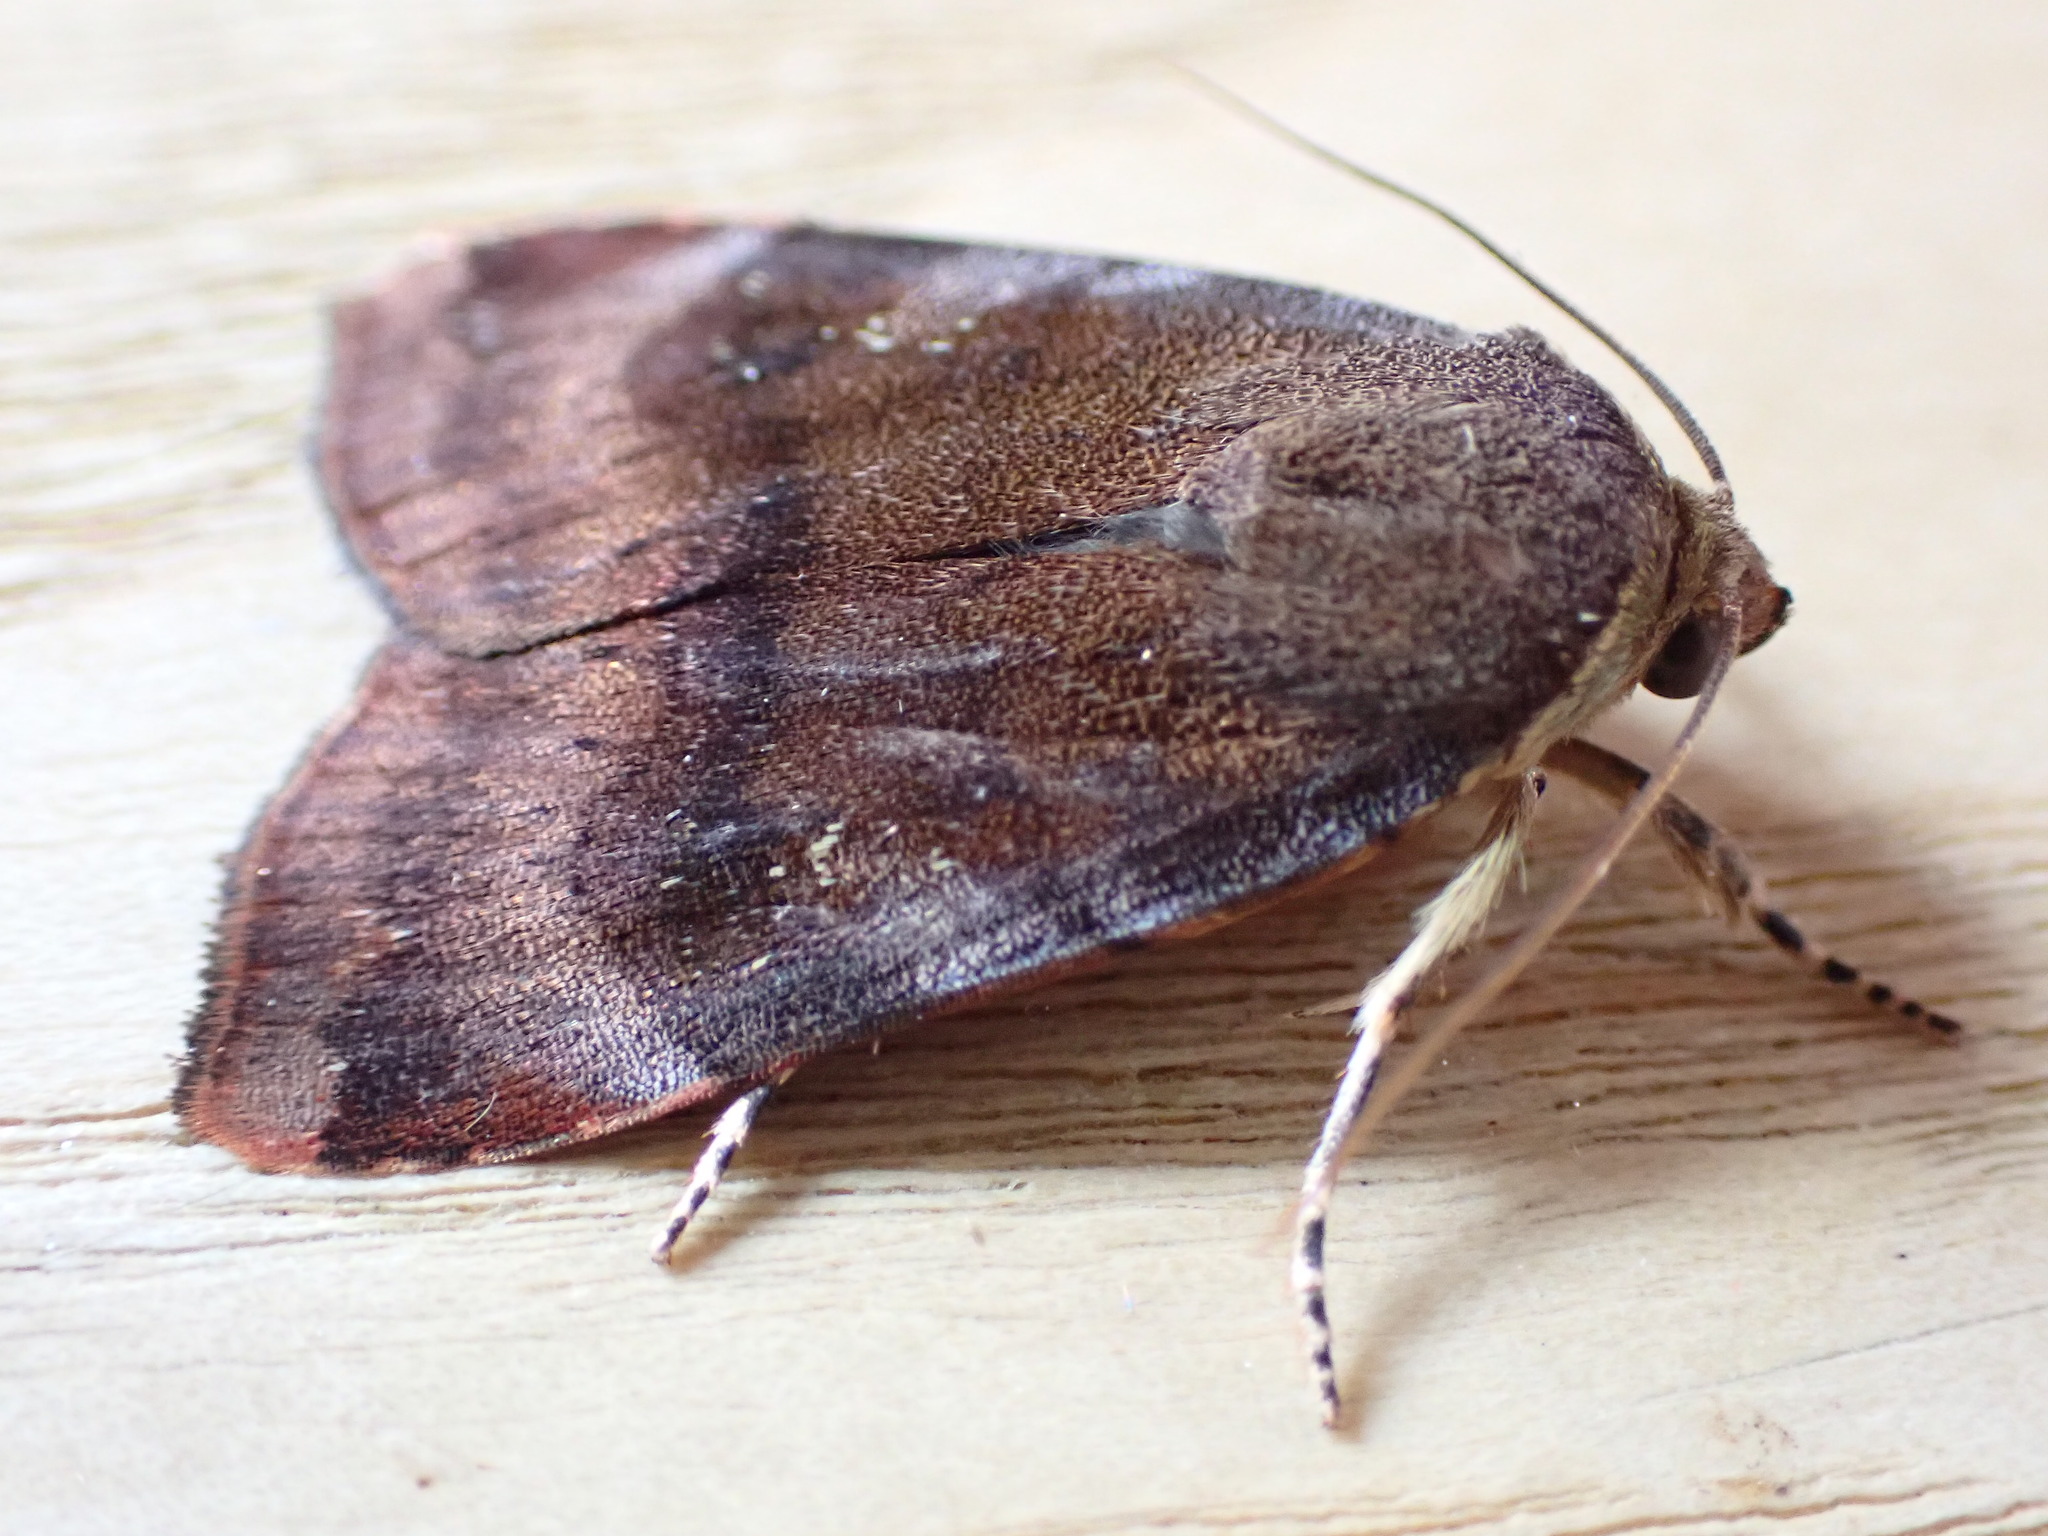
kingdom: Animalia
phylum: Arthropoda
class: Insecta
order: Lepidoptera
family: Noctuidae
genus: Noctua
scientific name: Noctua janthe
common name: Lesser broad-bordered yellow underwing
